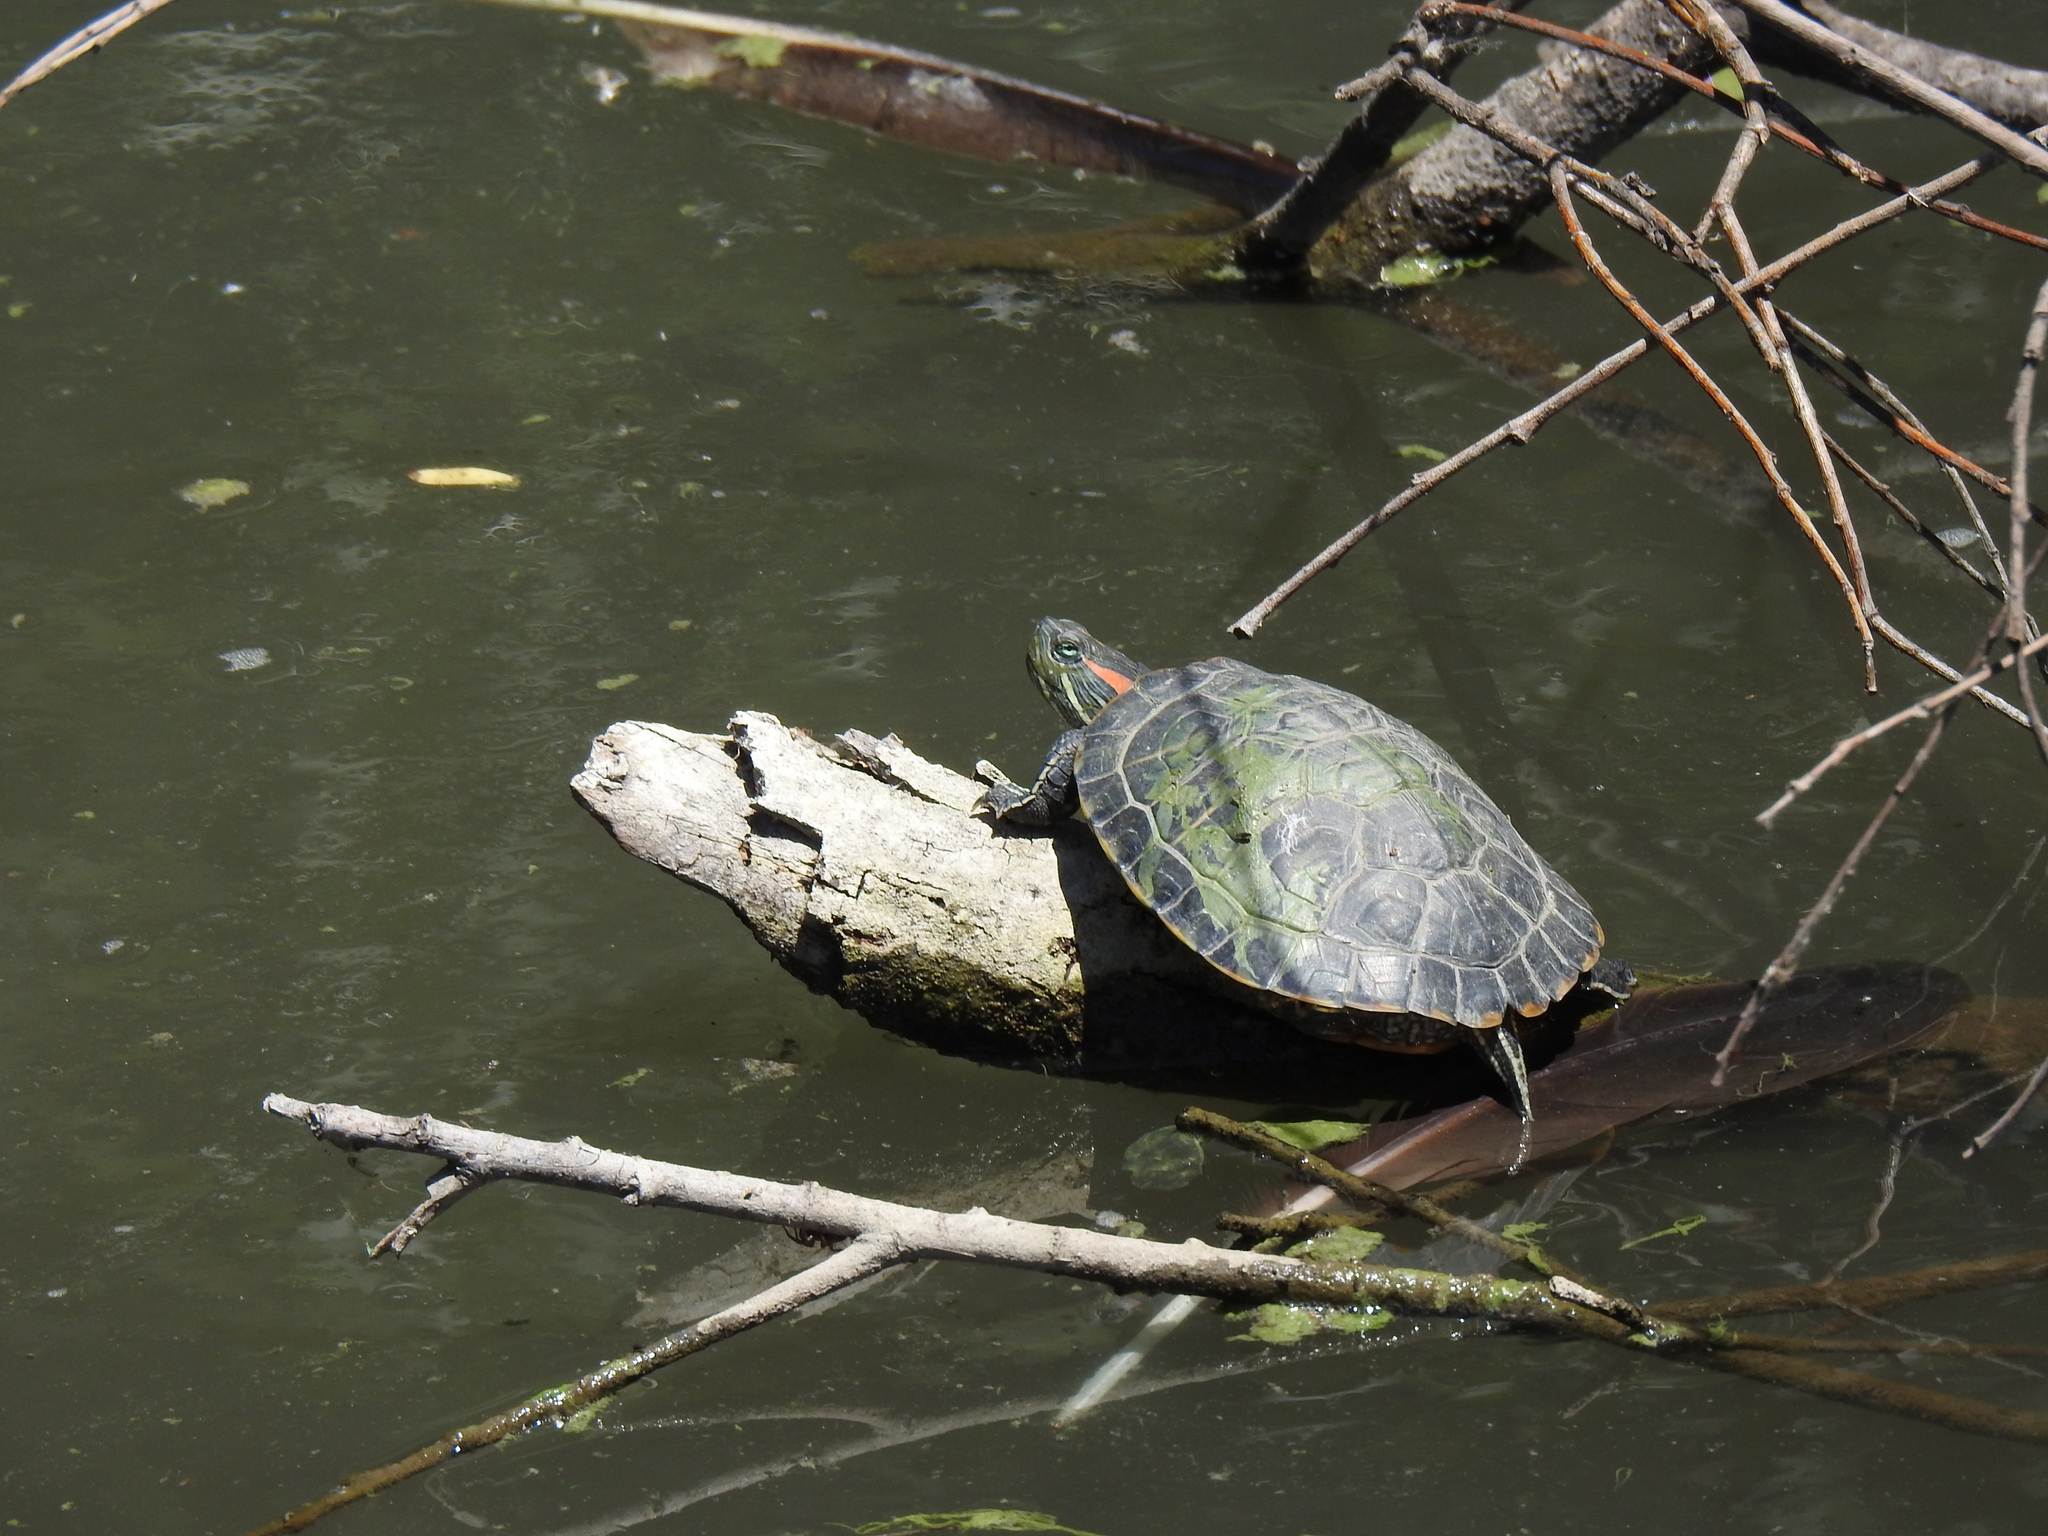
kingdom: Animalia
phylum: Chordata
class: Testudines
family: Emydidae
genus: Trachemys
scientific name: Trachemys scripta
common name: Slider
